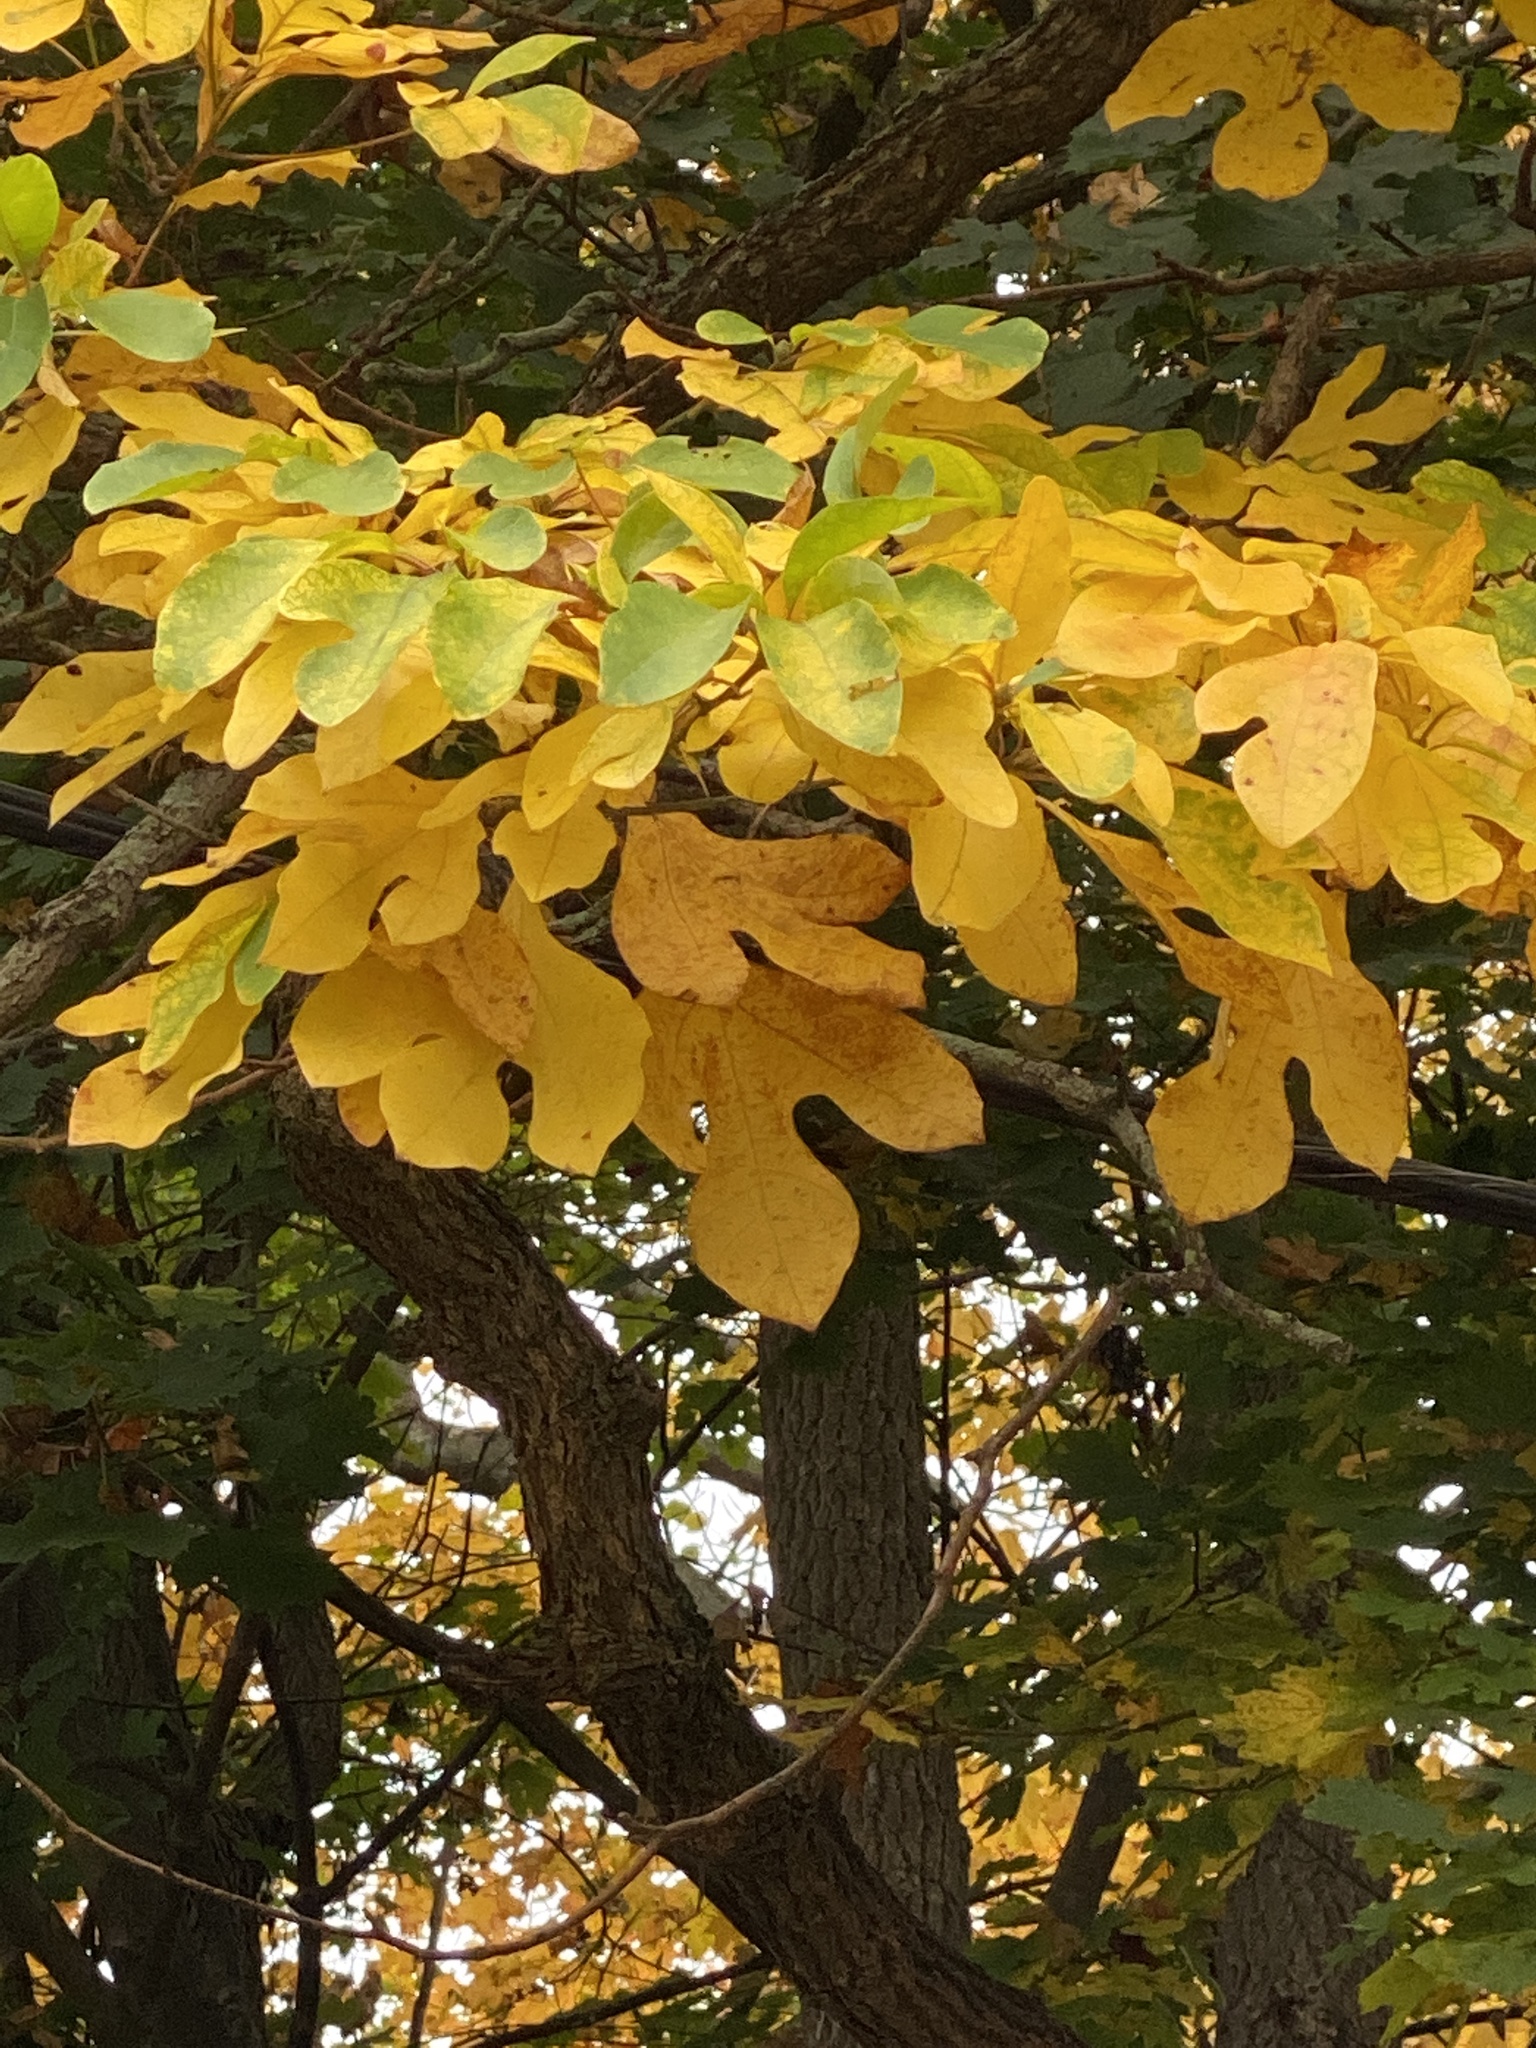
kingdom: Plantae
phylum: Tracheophyta
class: Magnoliopsida
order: Laurales
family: Lauraceae
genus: Sassafras
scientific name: Sassafras albidum
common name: Sassafras
